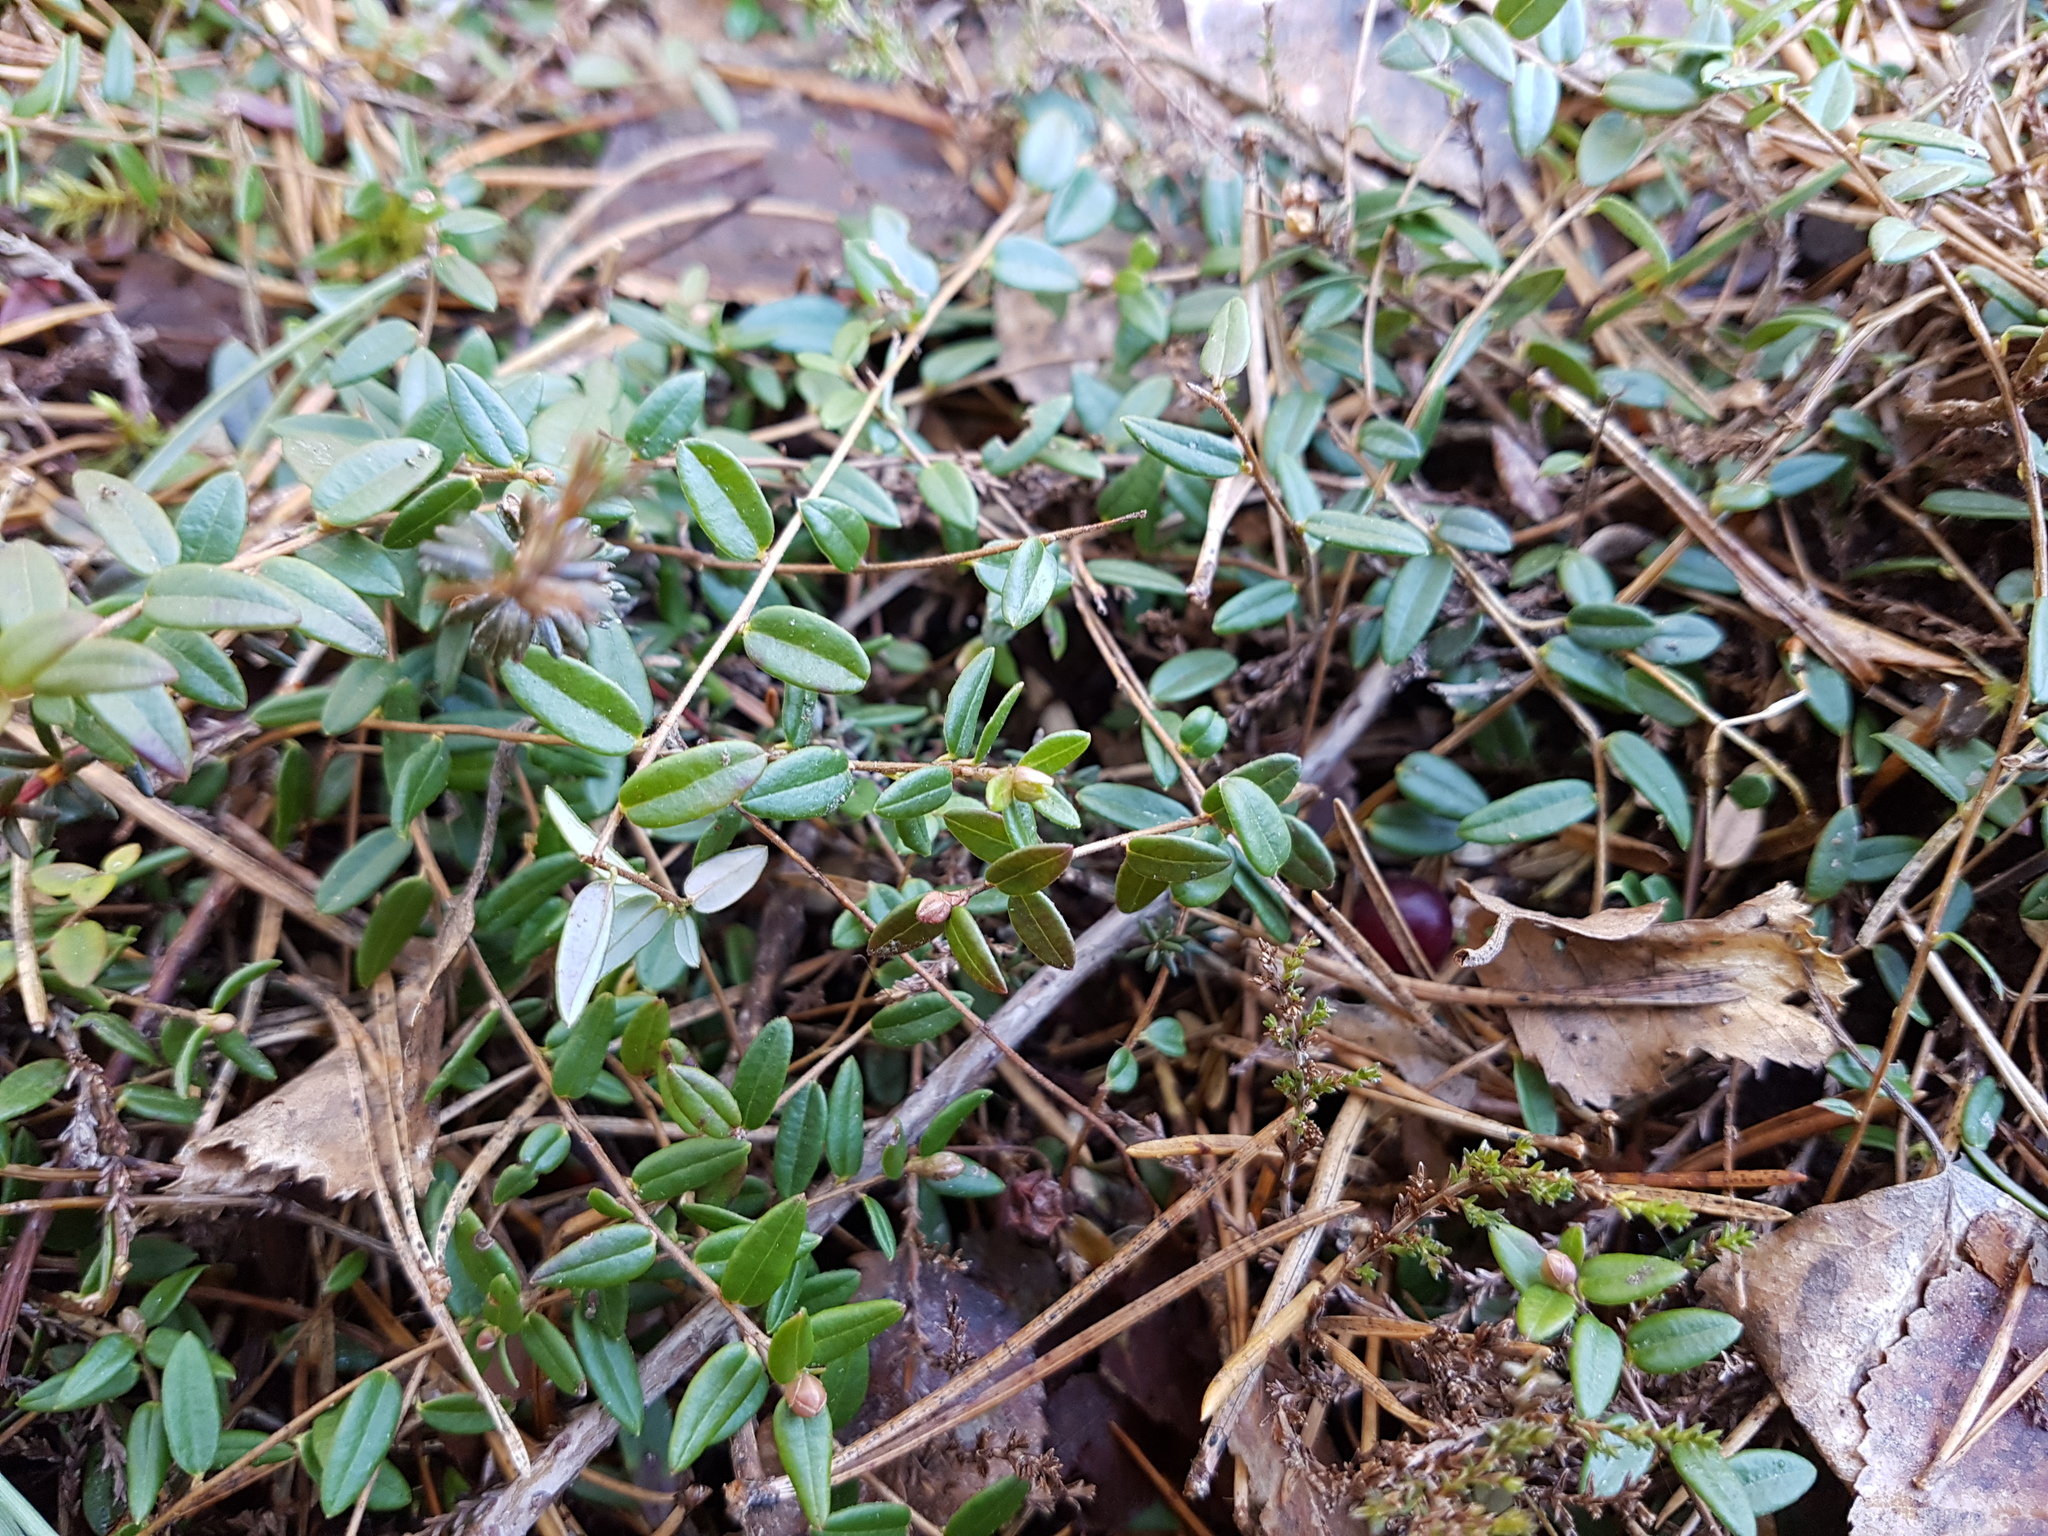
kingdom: Plantae
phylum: Tracheophyta
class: Magnoliopsida
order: Ericales
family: Ericaceae
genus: Vaccinium
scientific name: Vaccinium oxycoccos
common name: Cranberry
